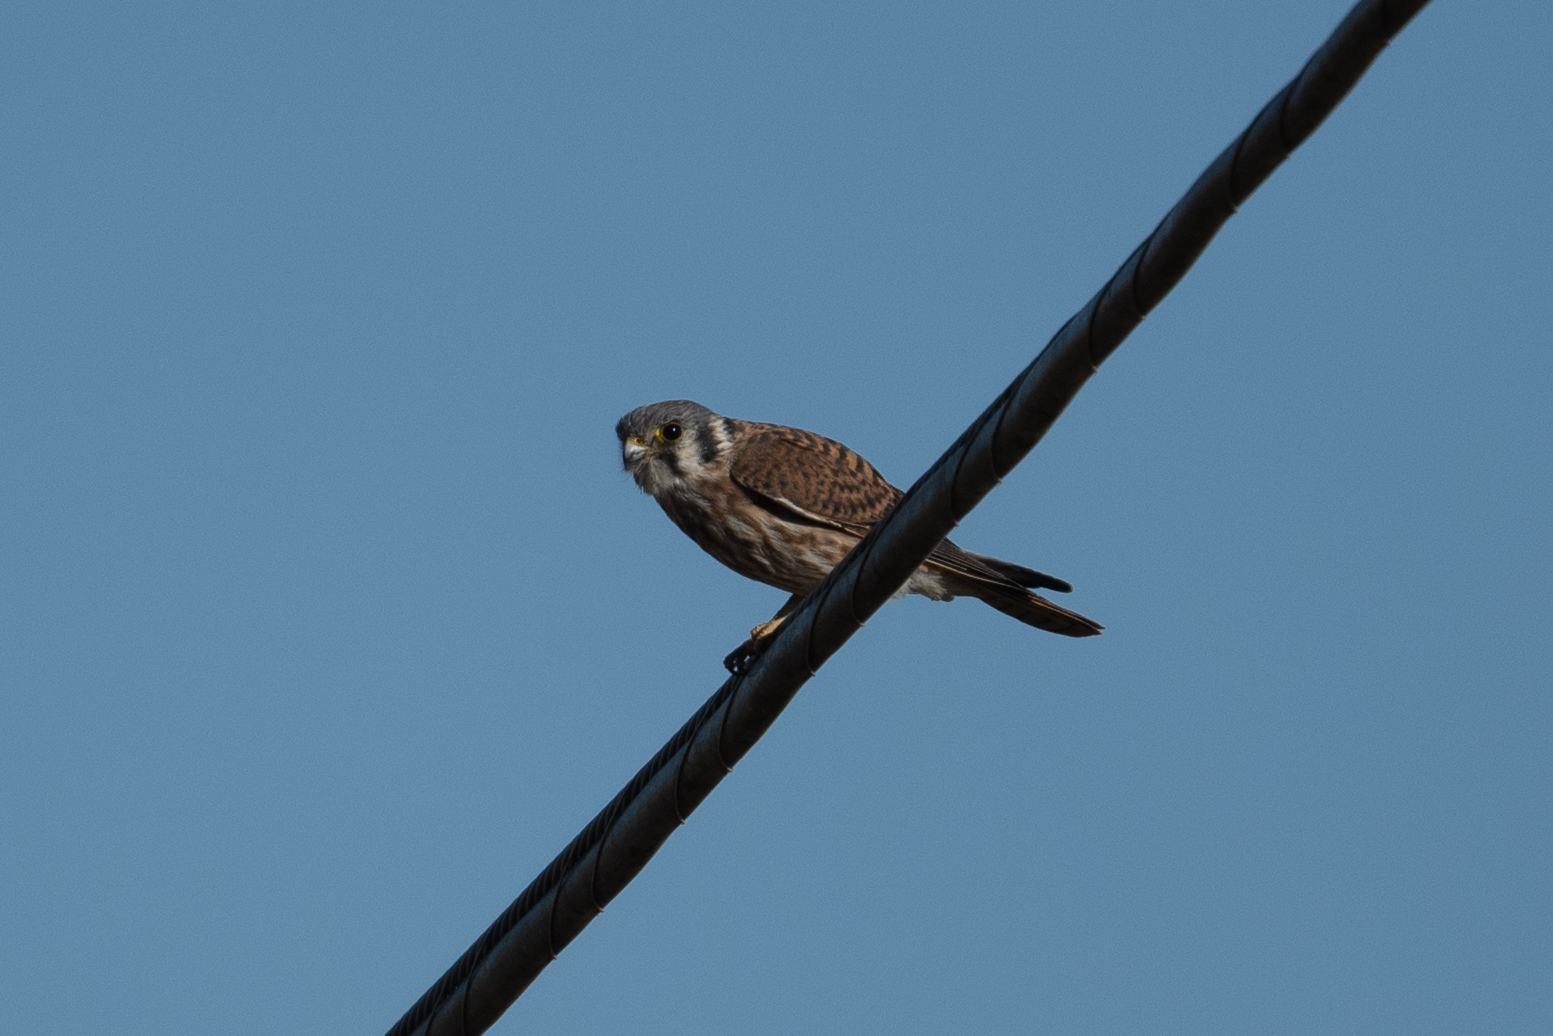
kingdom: Animalia
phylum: Chordata
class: Aves
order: Falconiformes
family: Falconidae
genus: Falco
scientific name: Falco sparverius
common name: American kestrel
